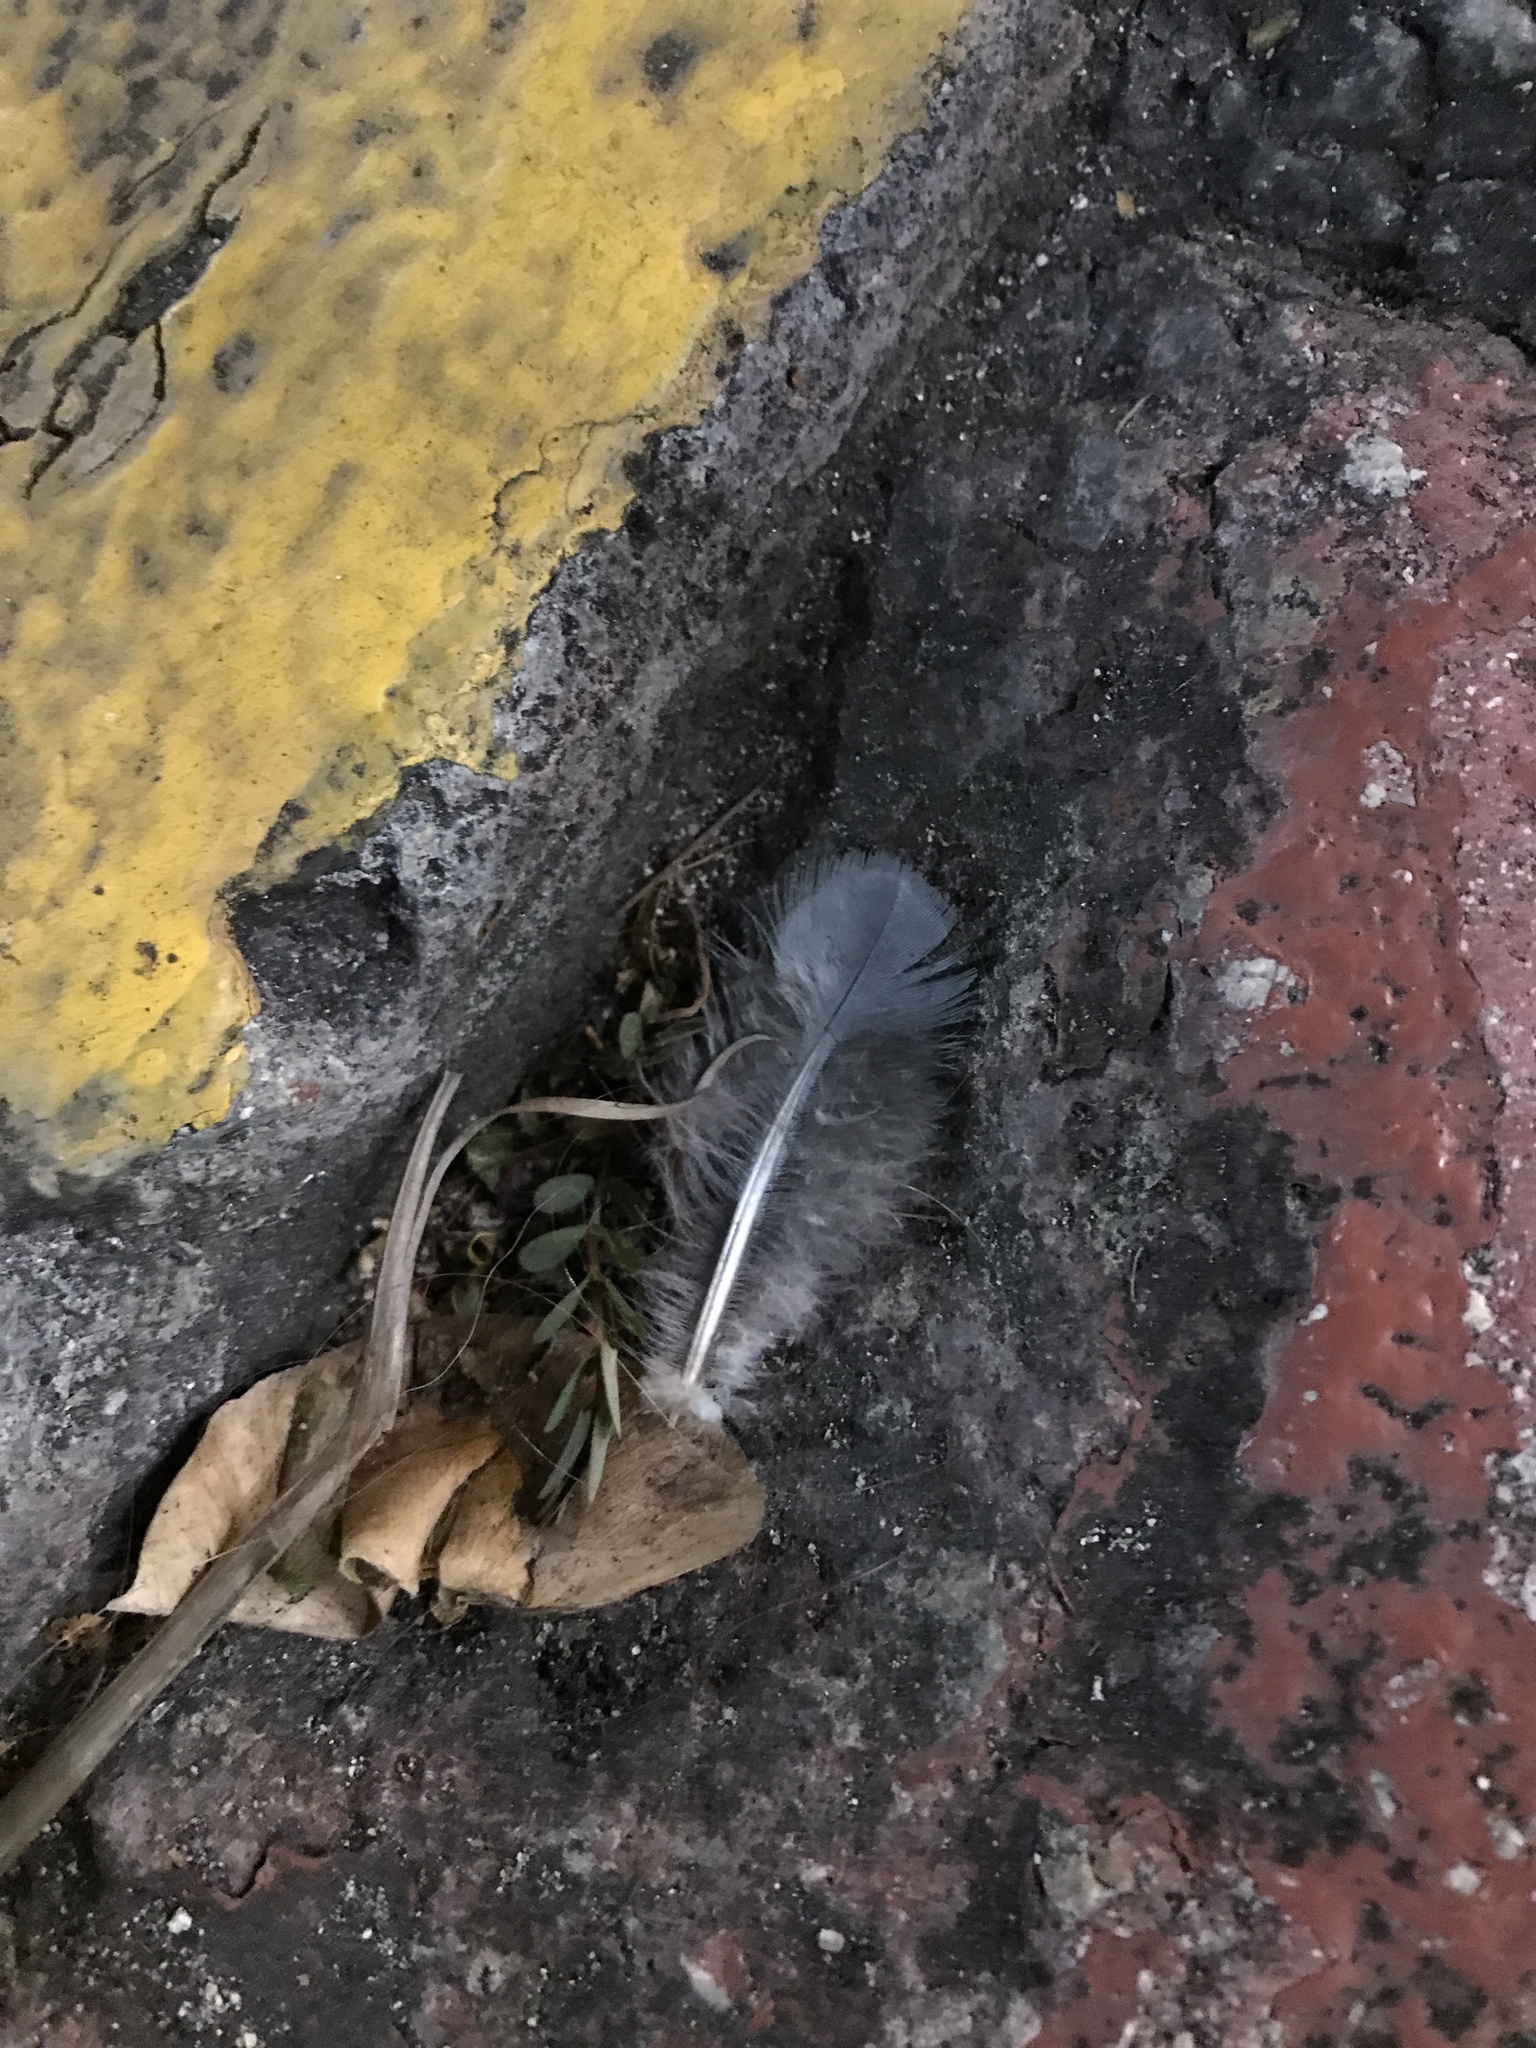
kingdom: Animalia
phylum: Chordata
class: Aves
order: Columbiformes
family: Columbidae
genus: Columba
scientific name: Columba livia
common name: Rock pigeon
